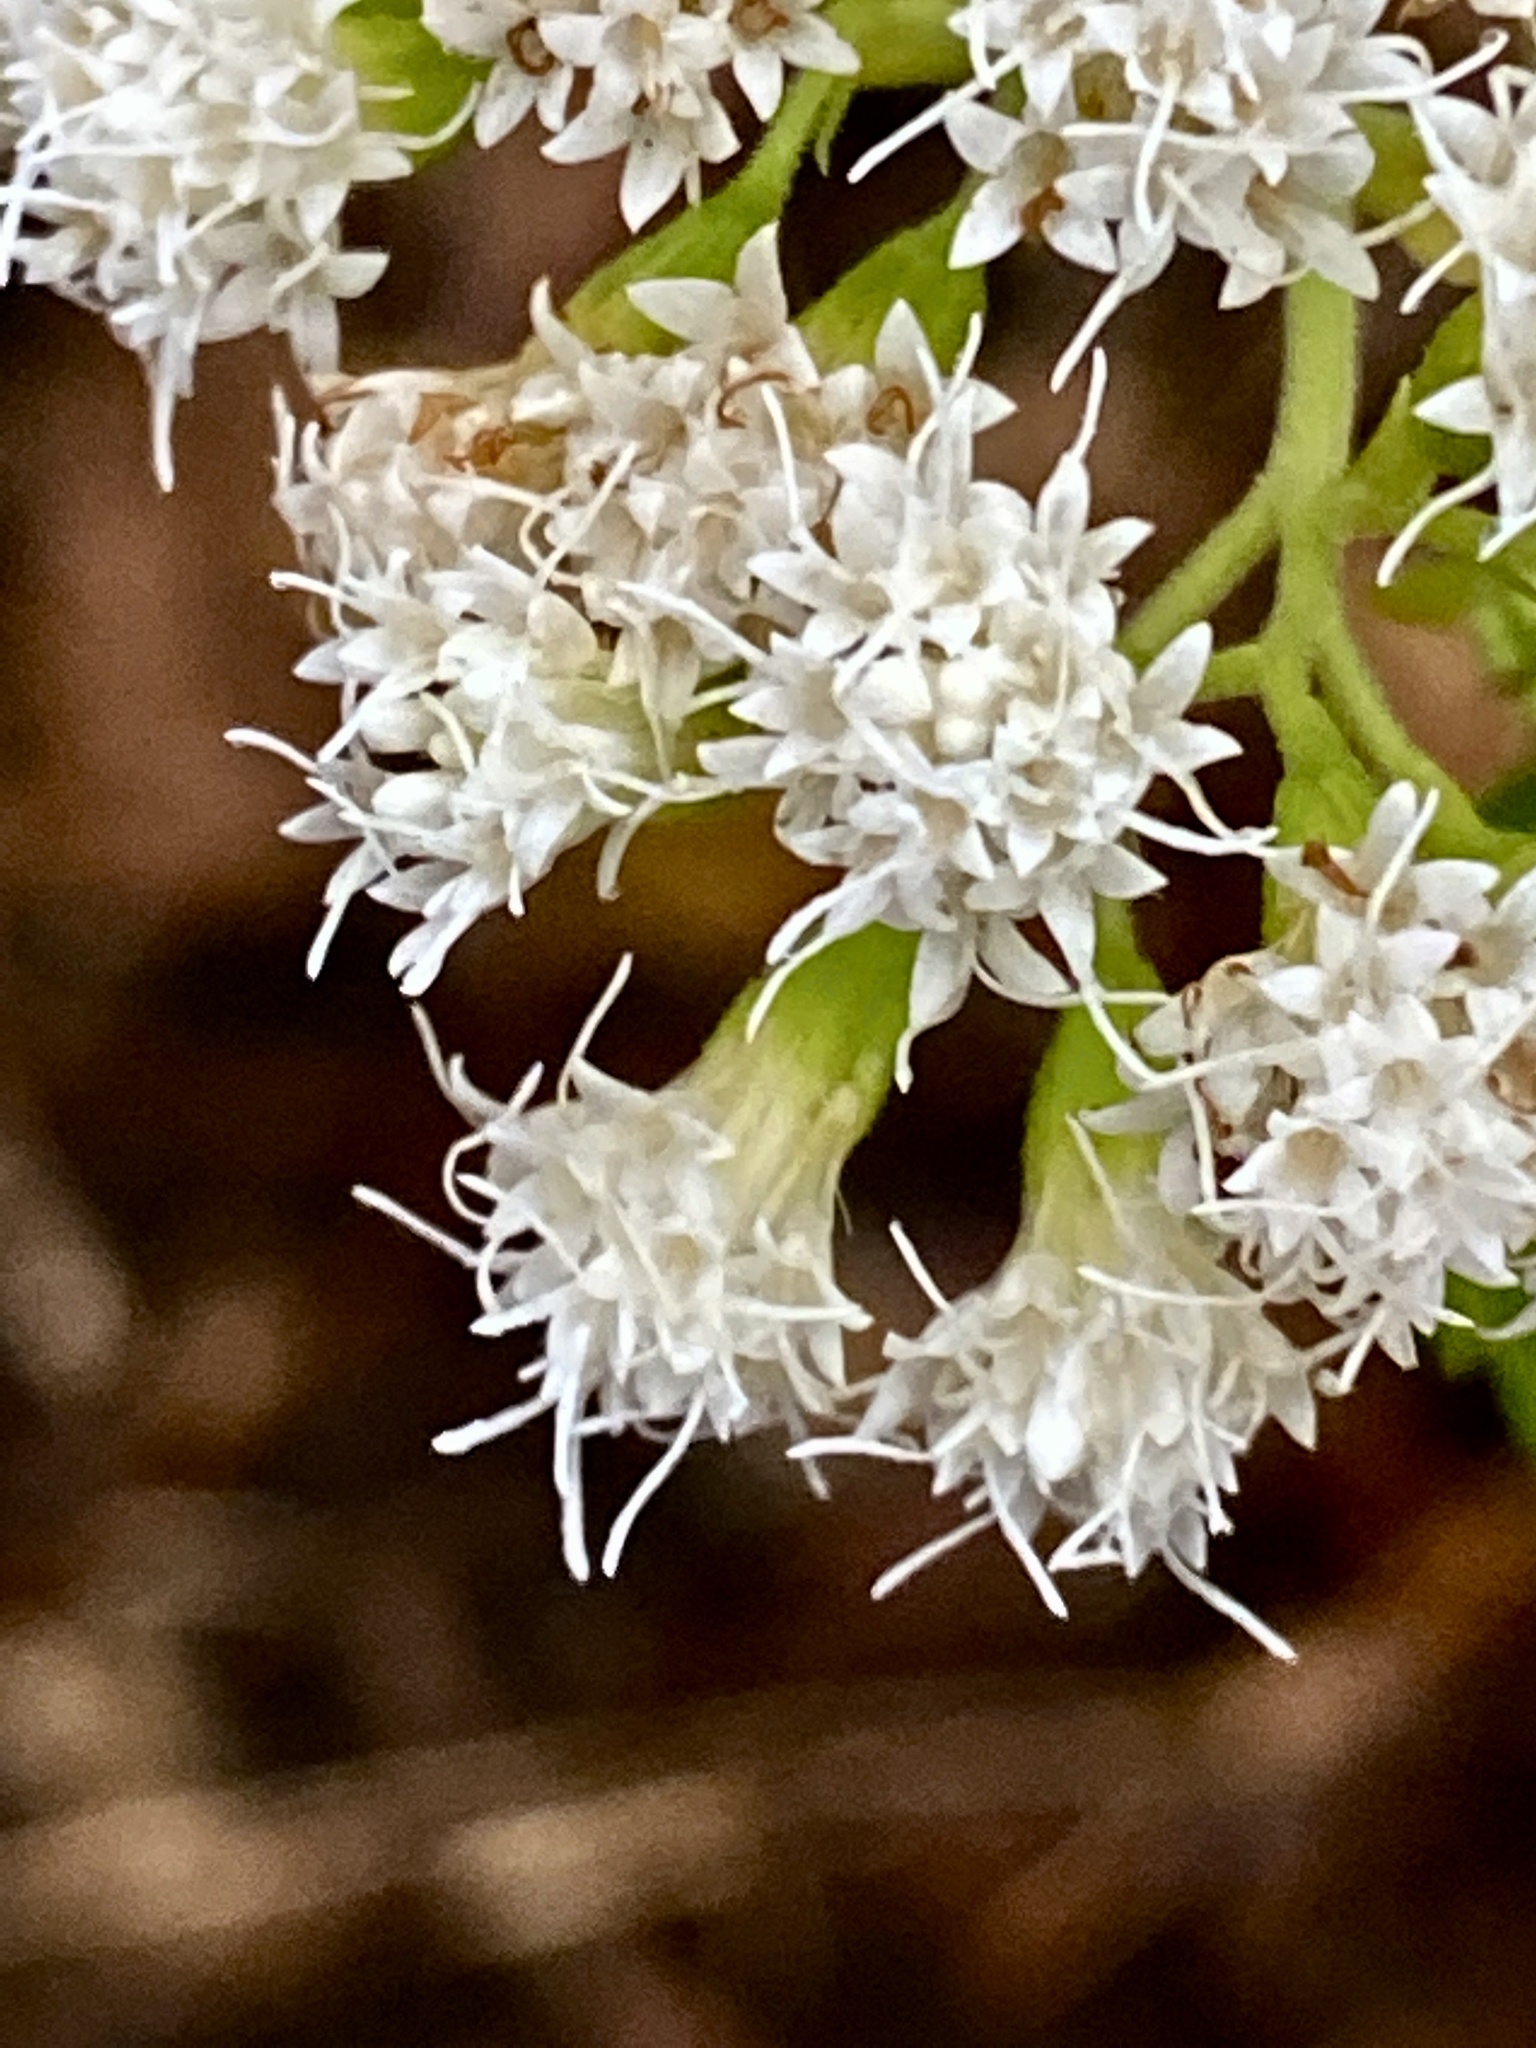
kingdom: Plantae
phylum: Tracheophyta
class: Magnoliopsida
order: Asterales
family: Asteraceae
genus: Ageratina
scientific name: Ageratina altissima
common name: White snakeroot
